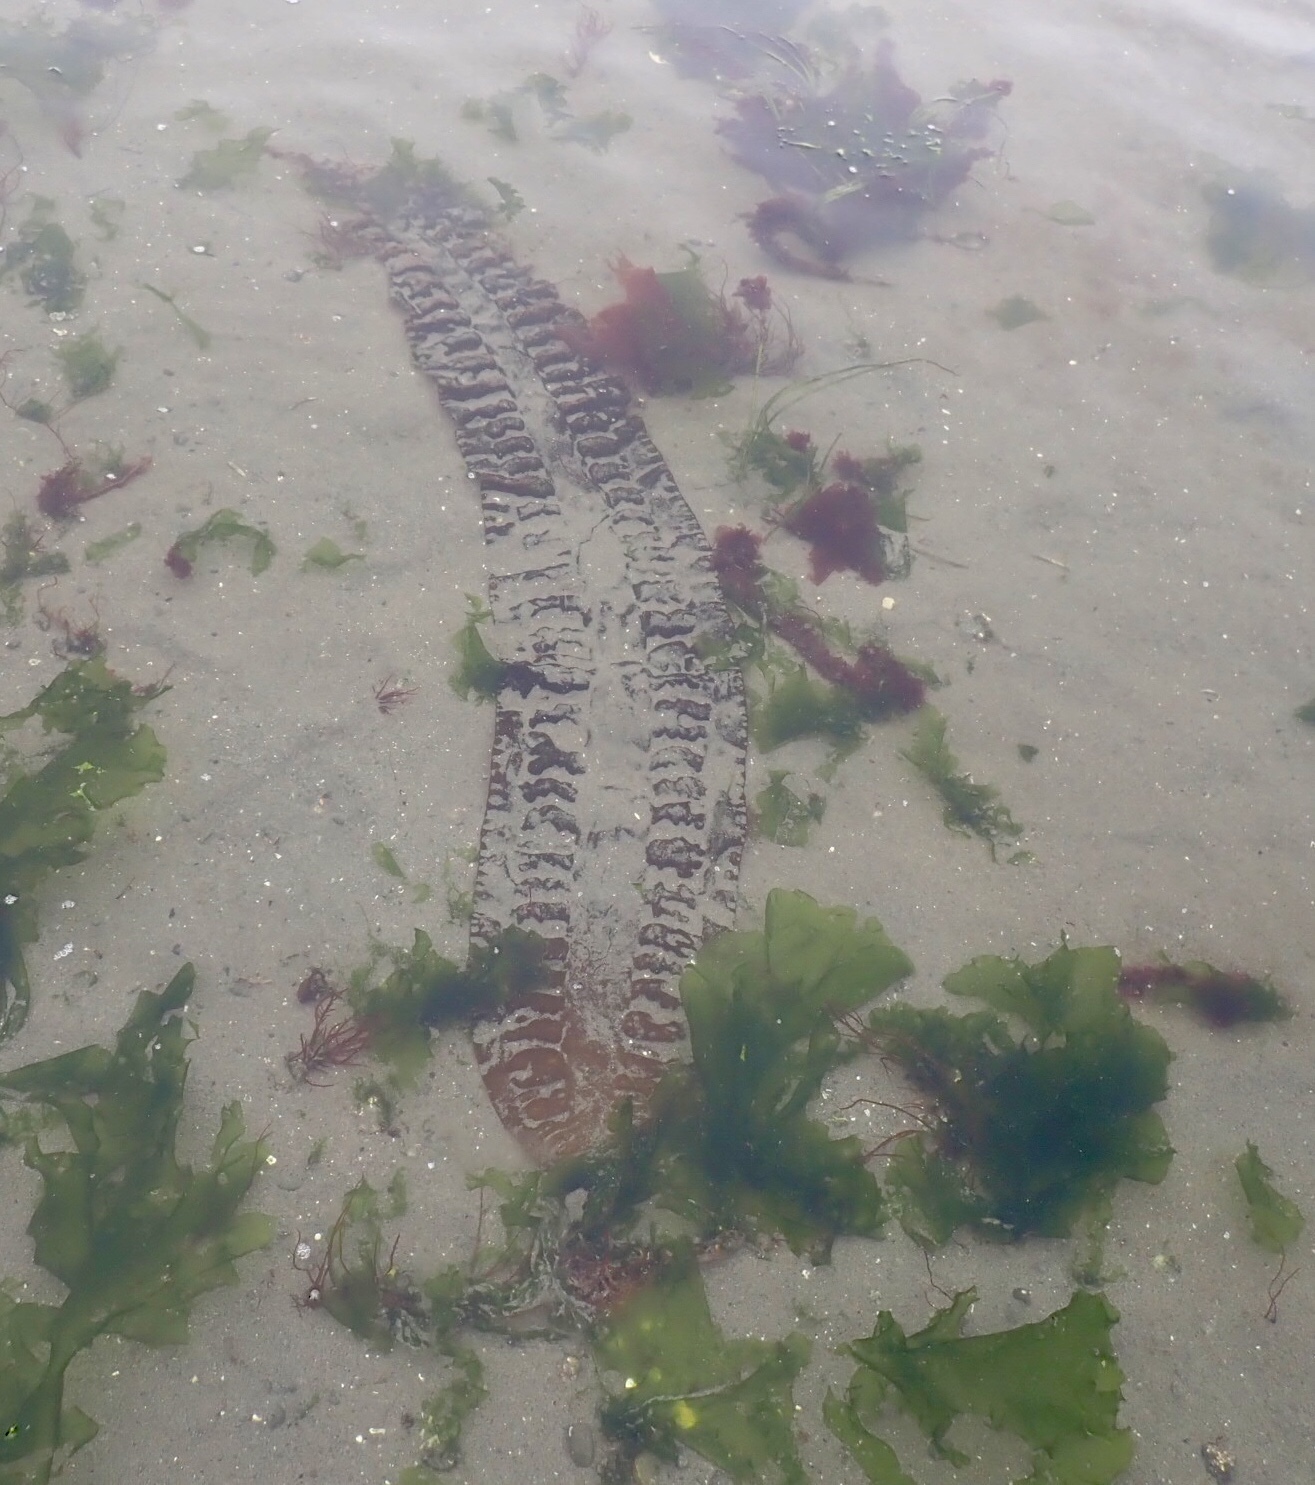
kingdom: Chromista
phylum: Ochrophyta
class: Phaeophyceae
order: Laminariales
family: Laminariaceae
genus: Saccharina
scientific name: Saccharina latissima
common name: Poor man's weather glass
